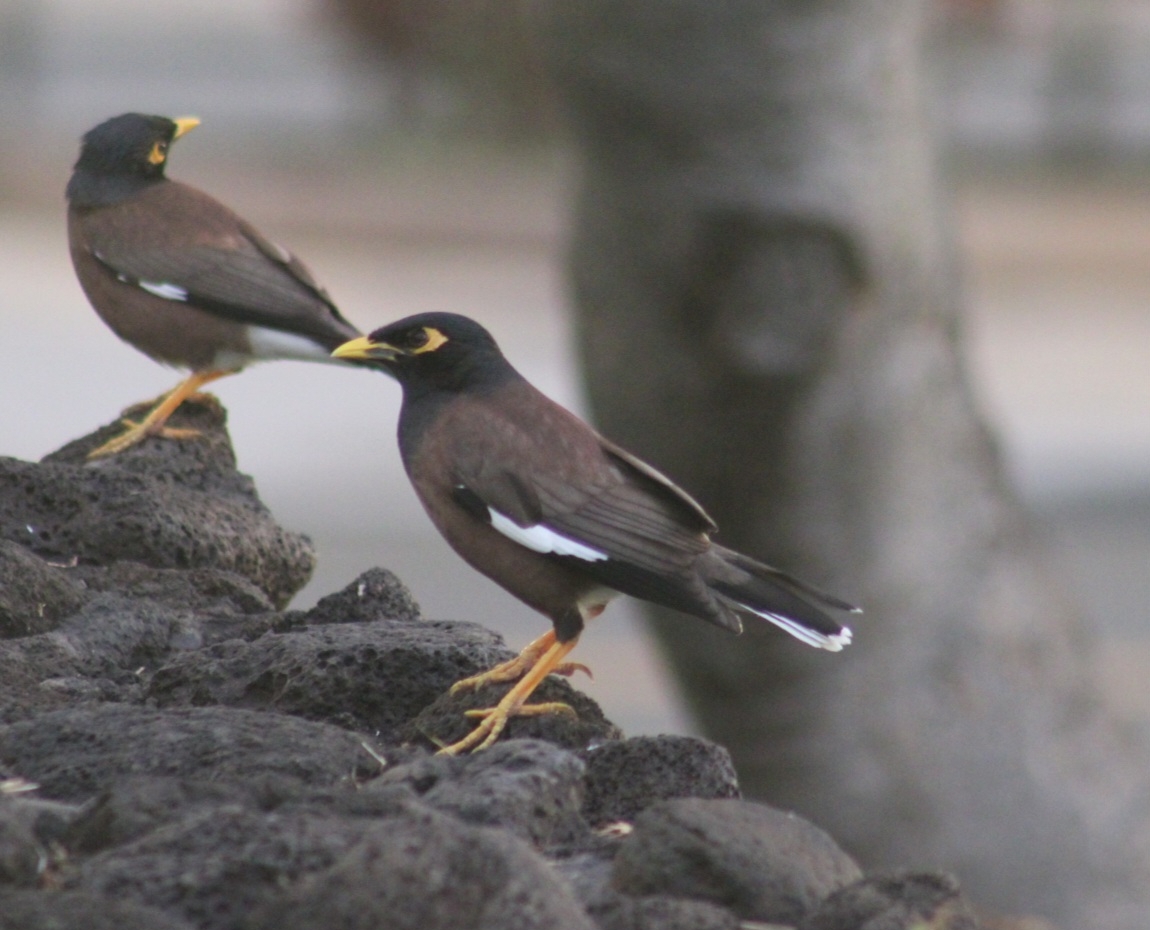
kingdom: Animalia
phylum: Chordata
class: Aves
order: Passeriformes
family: Sturnidae
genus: Acridotheres
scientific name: Acridotheres tristis
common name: Common myna
